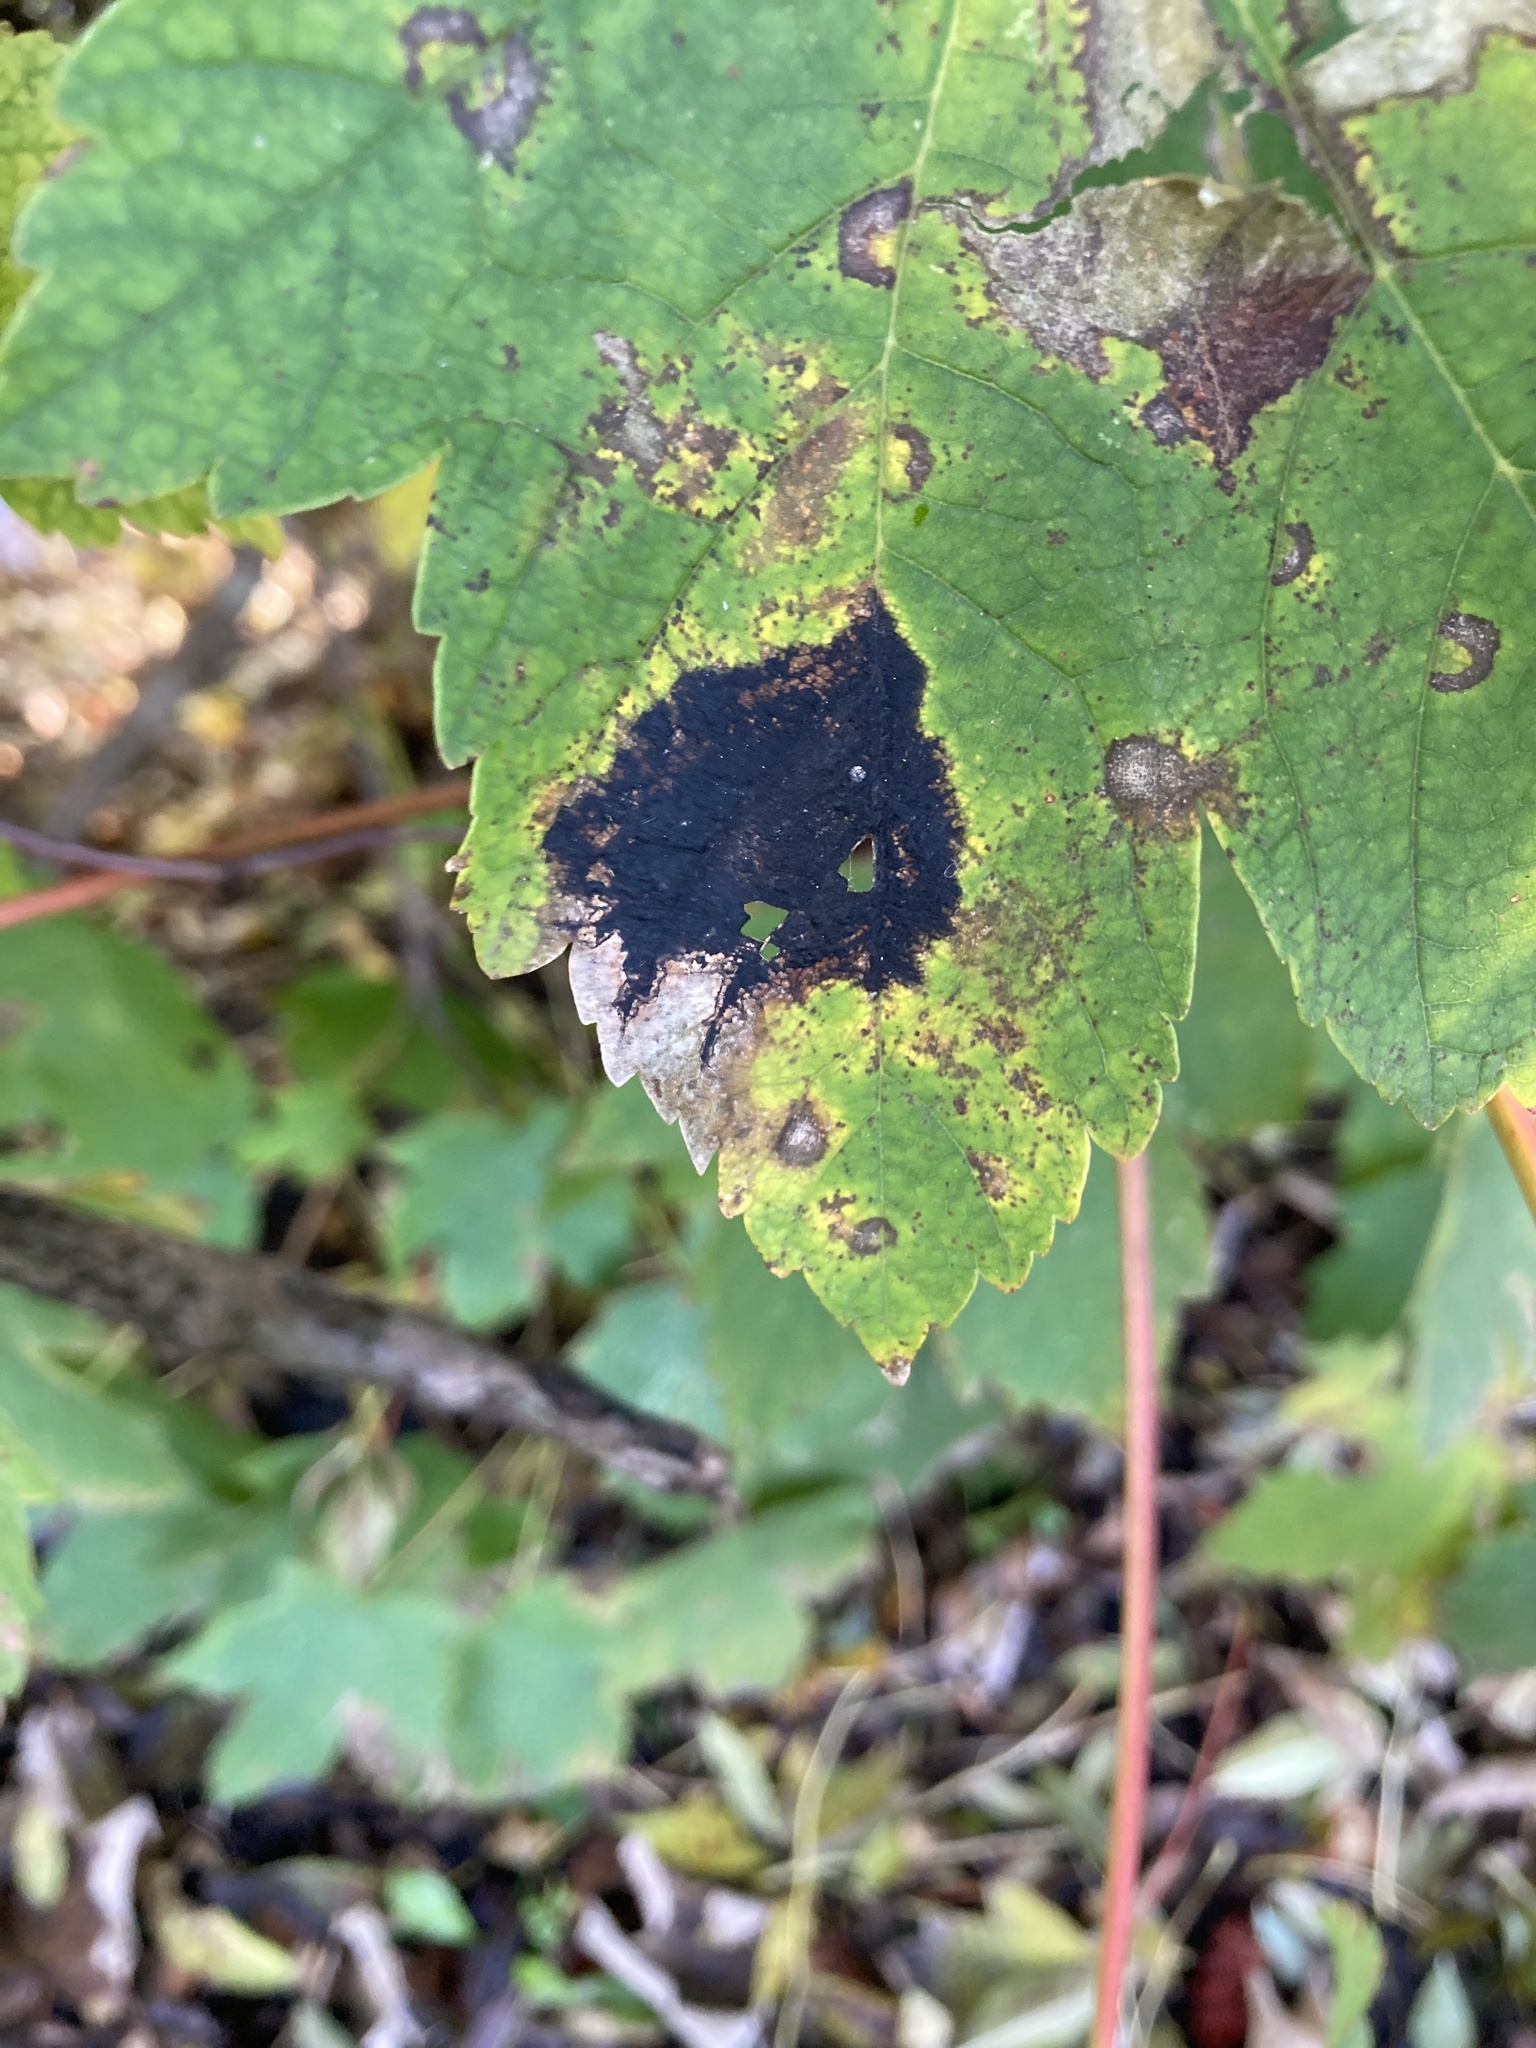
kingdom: Fungi
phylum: Ascomycota
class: Leotiomycetes
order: Rhytismatales
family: Rhytismataceae
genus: Rhytisma
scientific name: Rhytisma acerinum
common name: European tar spot
